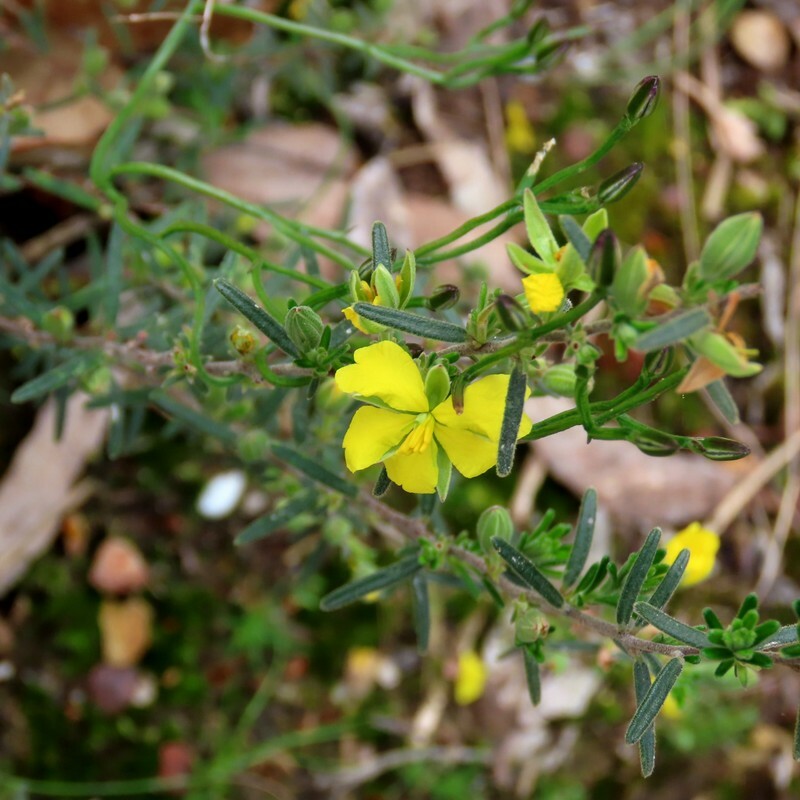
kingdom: Plantae
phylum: Tracheophyta
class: Magnoliopsida
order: Dilleniales
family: Dilleniaceae
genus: Hibbertia
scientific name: Hibbertia riparia
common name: Erect guinea-flower
